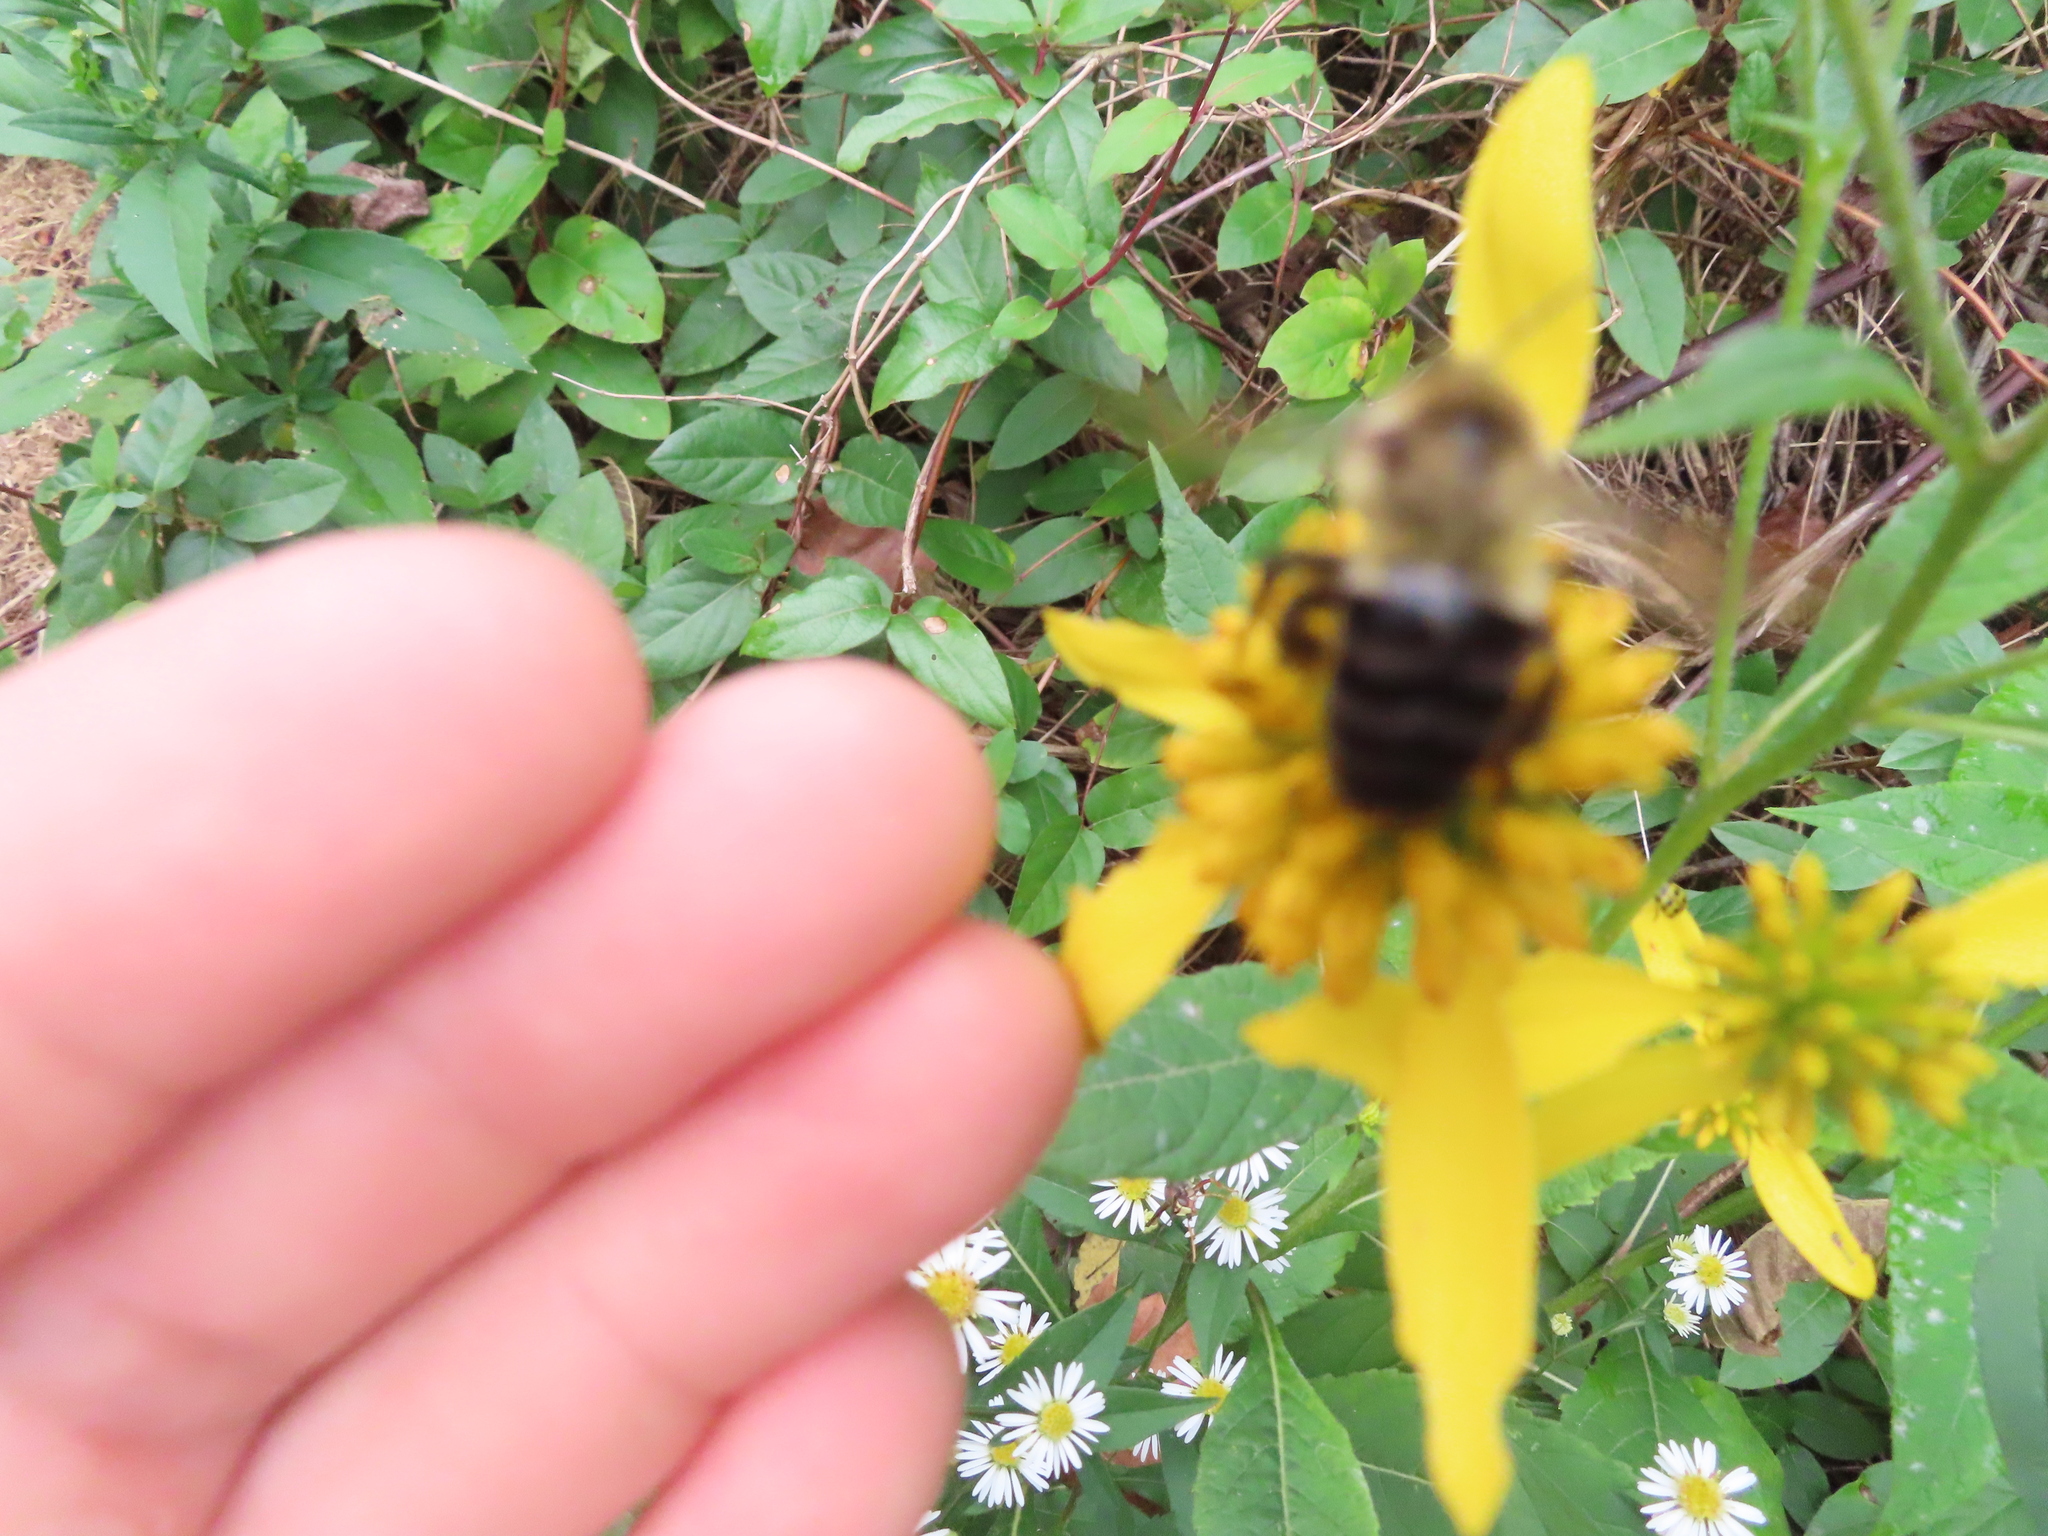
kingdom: Animalia
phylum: Arthropoda
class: Insecta
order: Hymenoptera
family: Apidae
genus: Bombus
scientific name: Bombus impatiens
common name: Common eastern bumble bee
